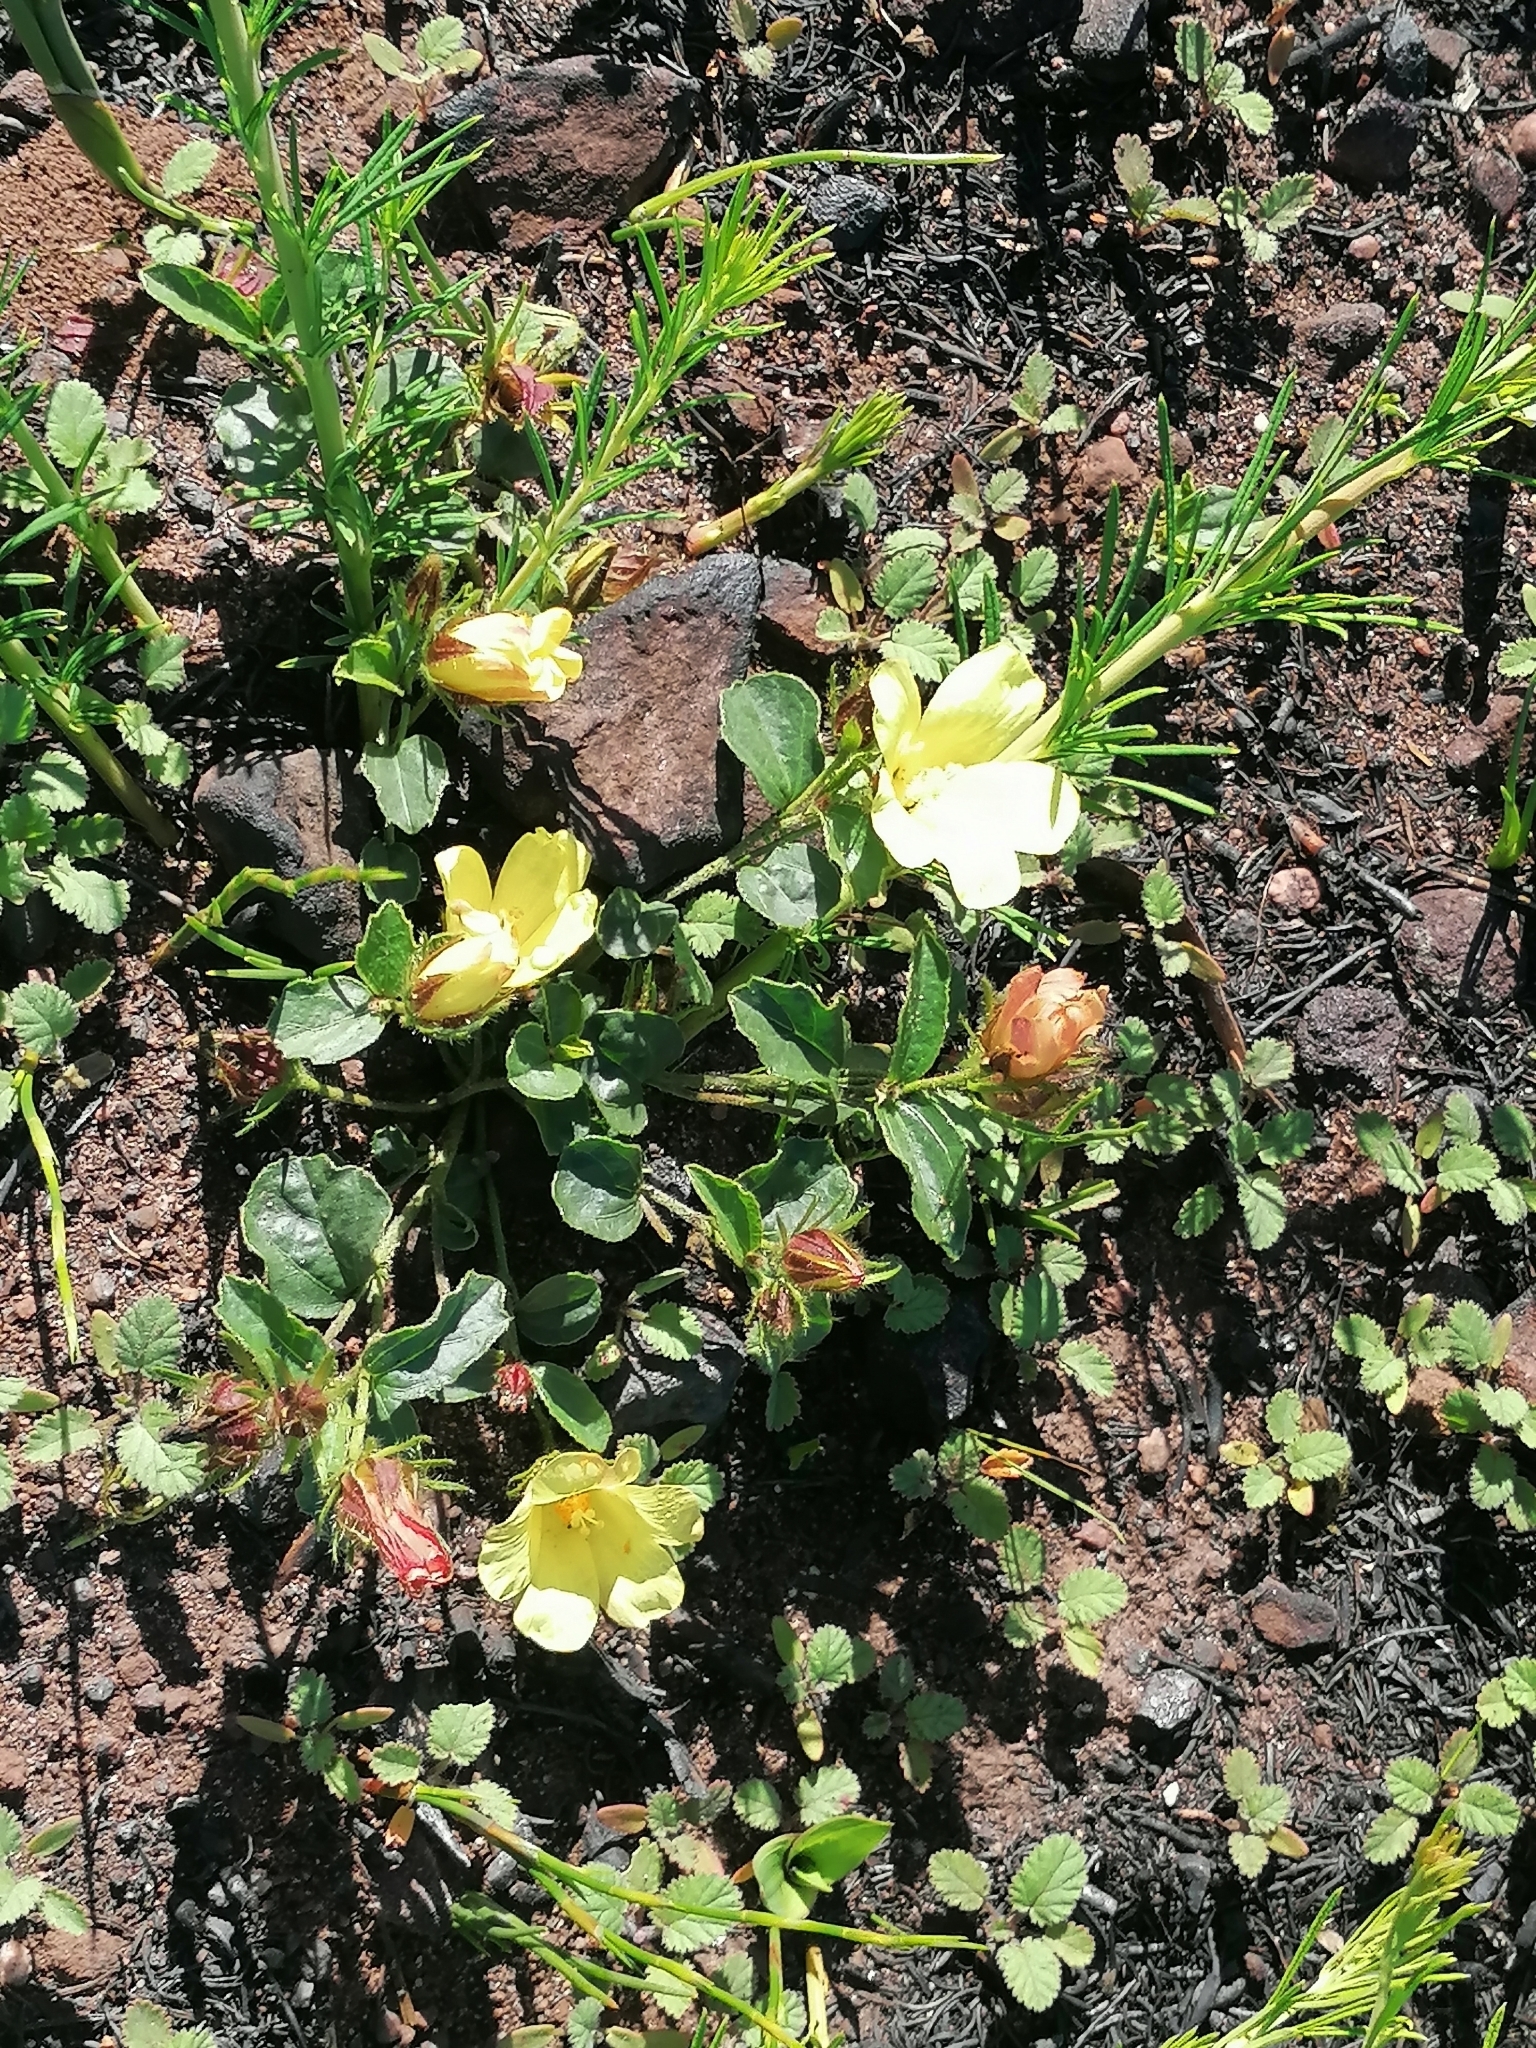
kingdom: Plantae
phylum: Tracheophyta
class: Magnoliopsida
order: Malvales
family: Malvaceae
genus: Hibiscus
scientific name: Hibiscus aethiopicus
